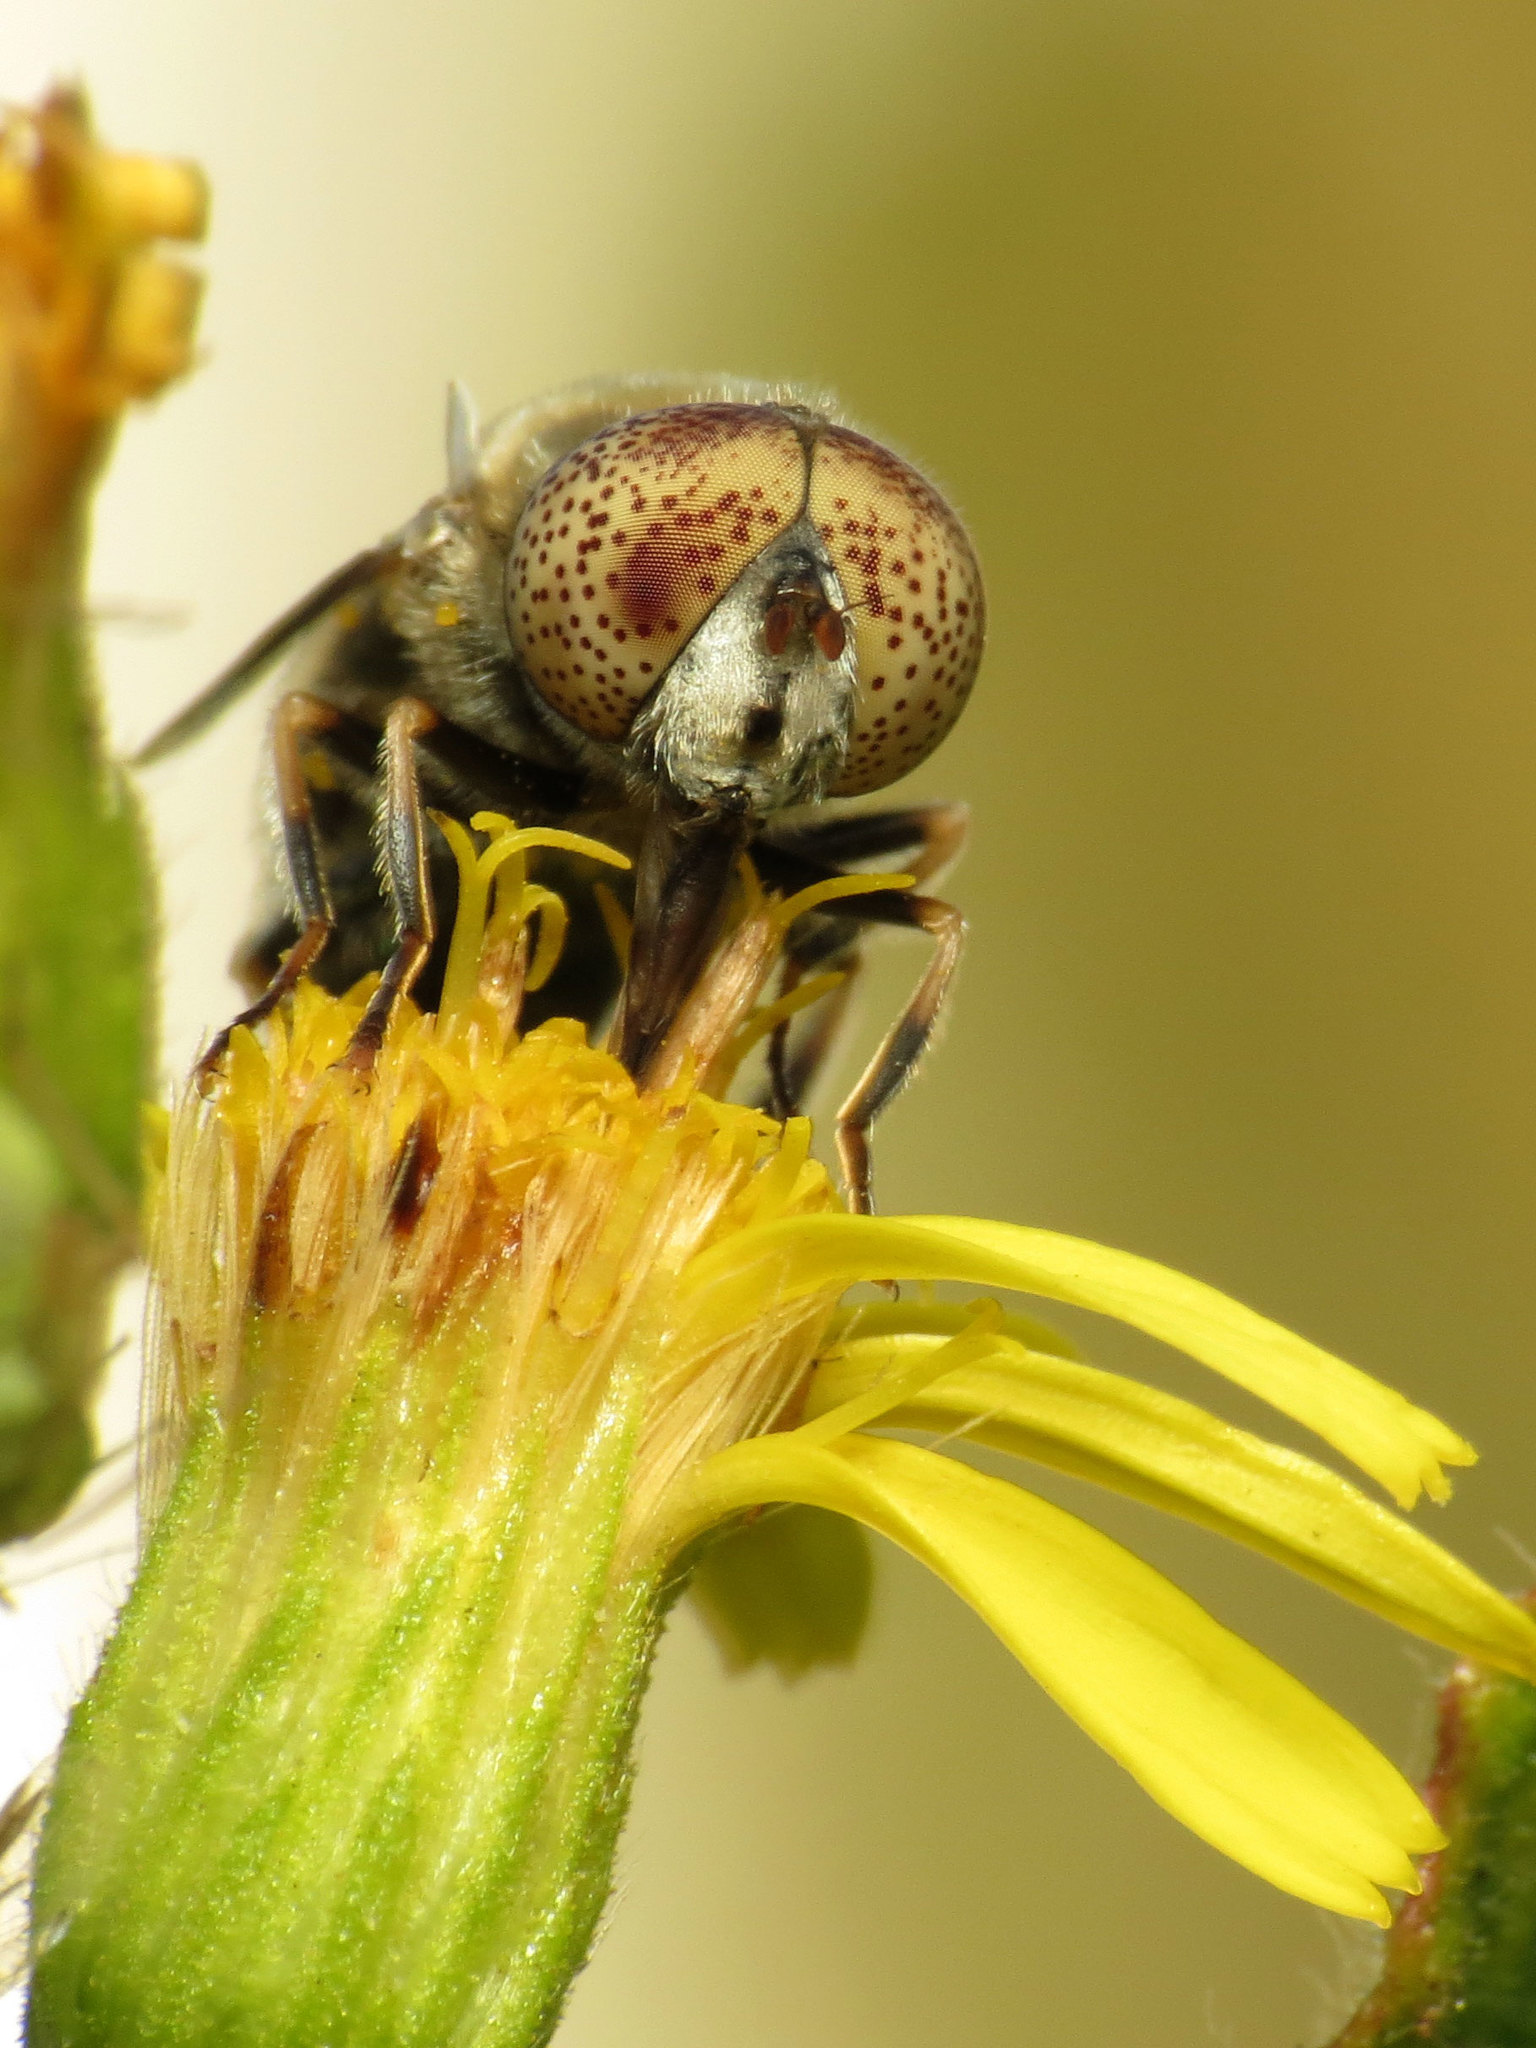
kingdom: Animalia
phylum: Arthropoda
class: Insecta
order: Diptera
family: Syrphidae
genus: Eristalinus
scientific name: Eristalinus aeneus
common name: Syrphid fly
